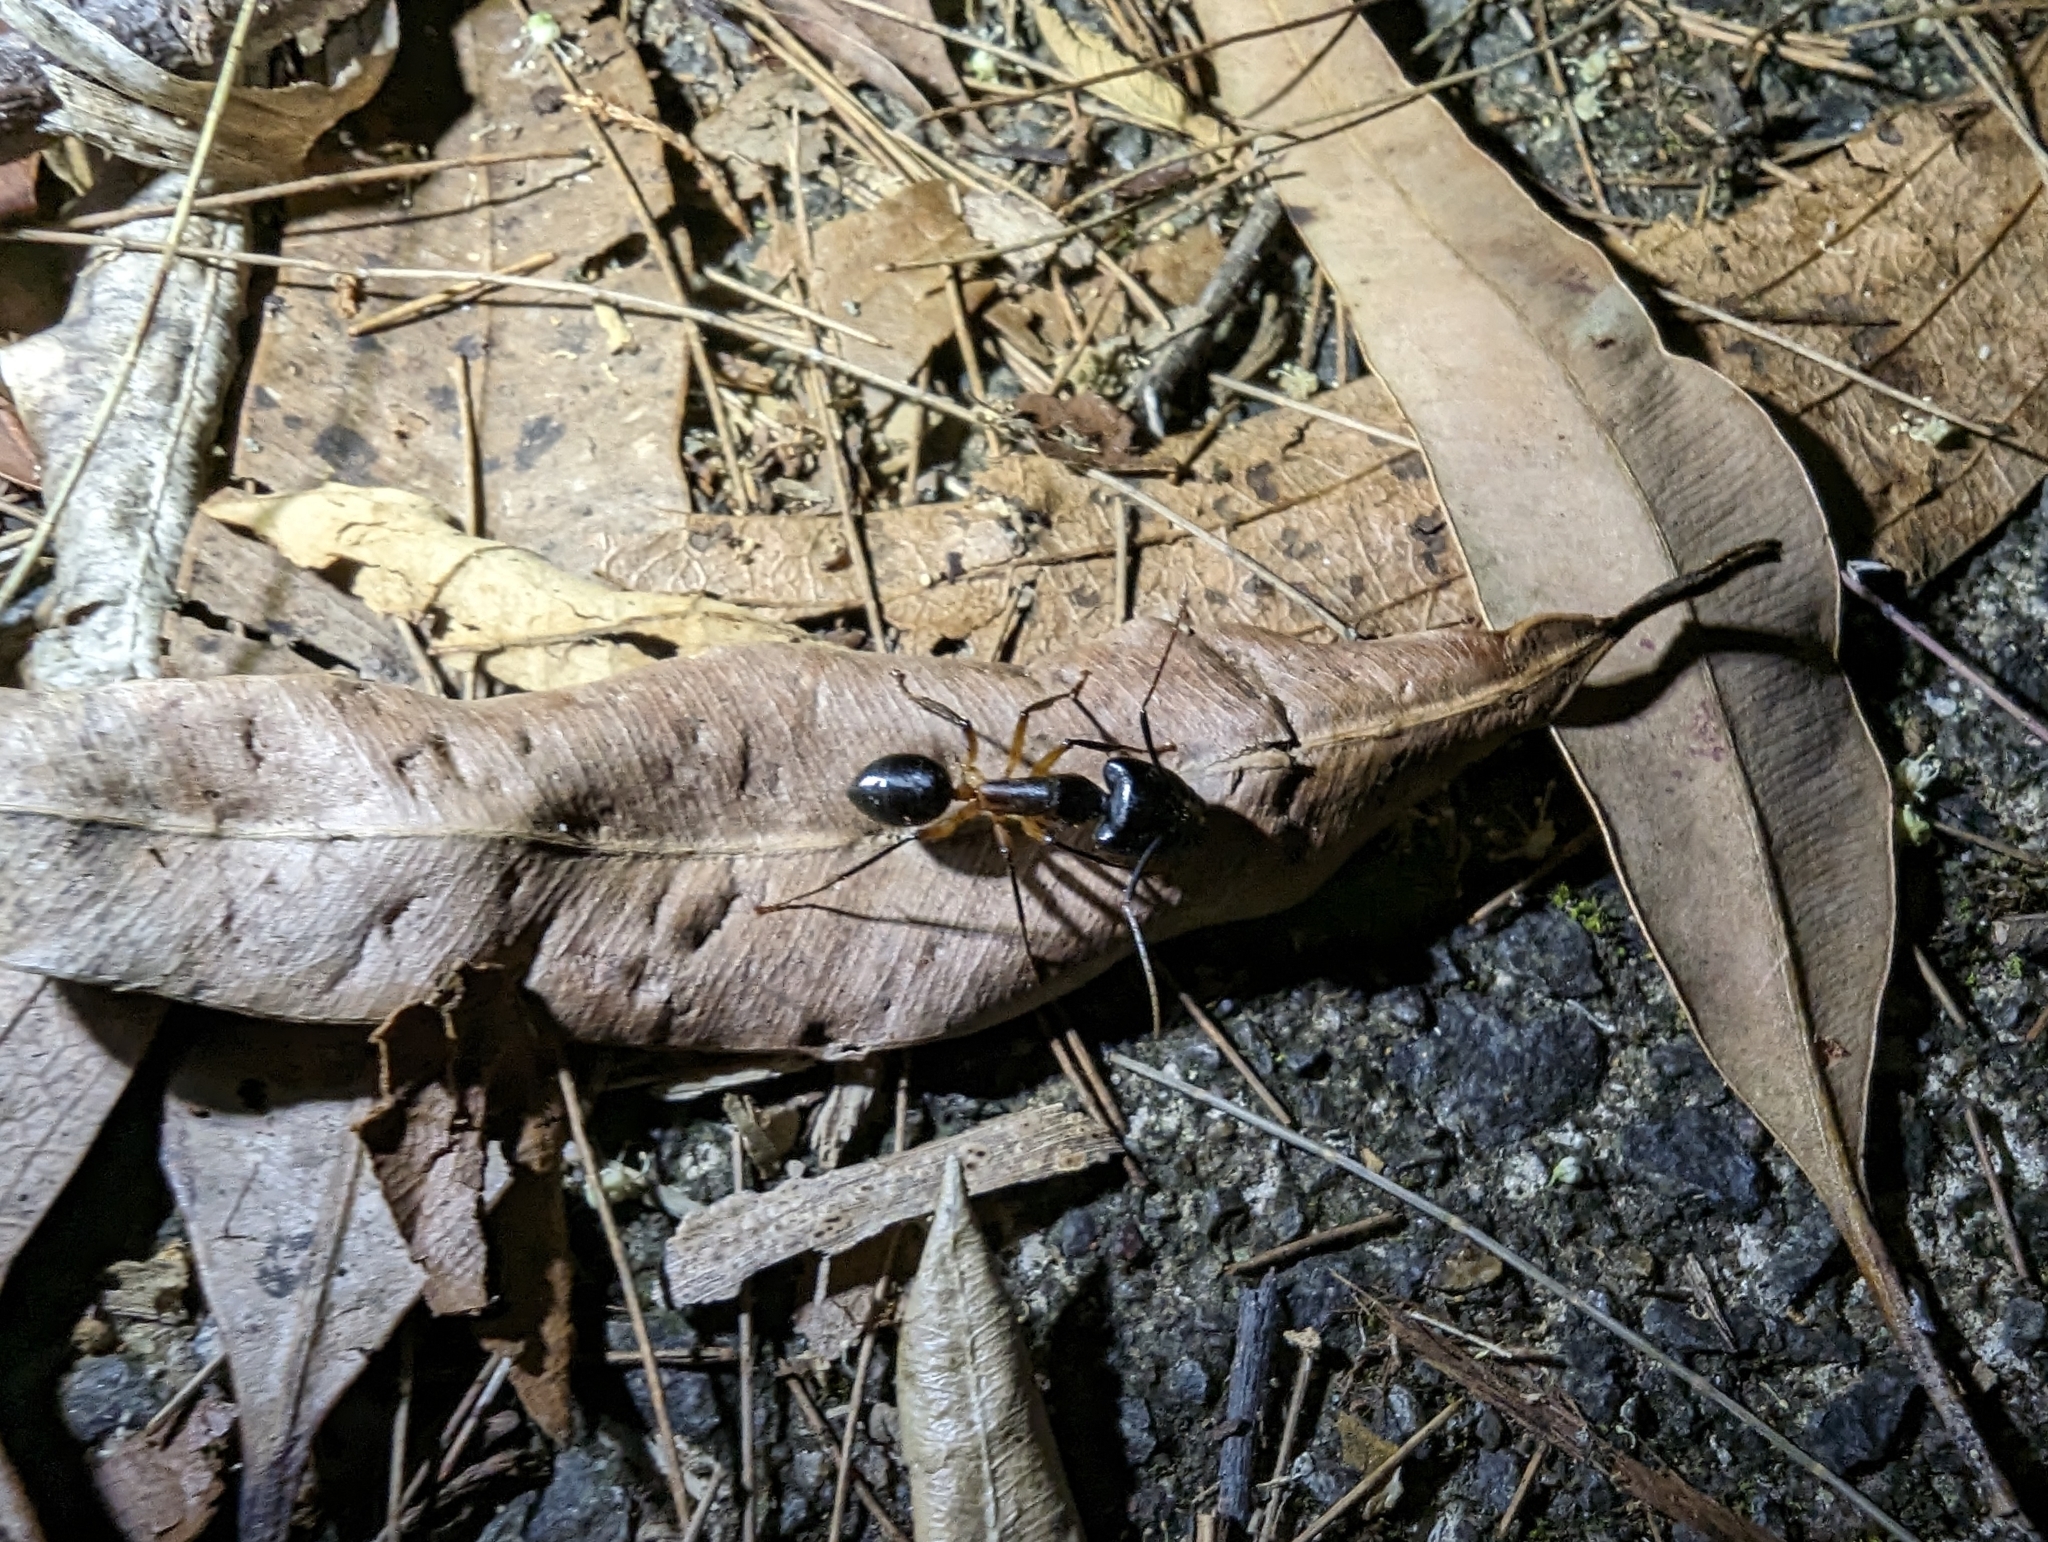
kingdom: Animalia
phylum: Arthropoda
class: Insecta
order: Hymenoptera
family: Formicidae
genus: Camponotus
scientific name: Camponotus
